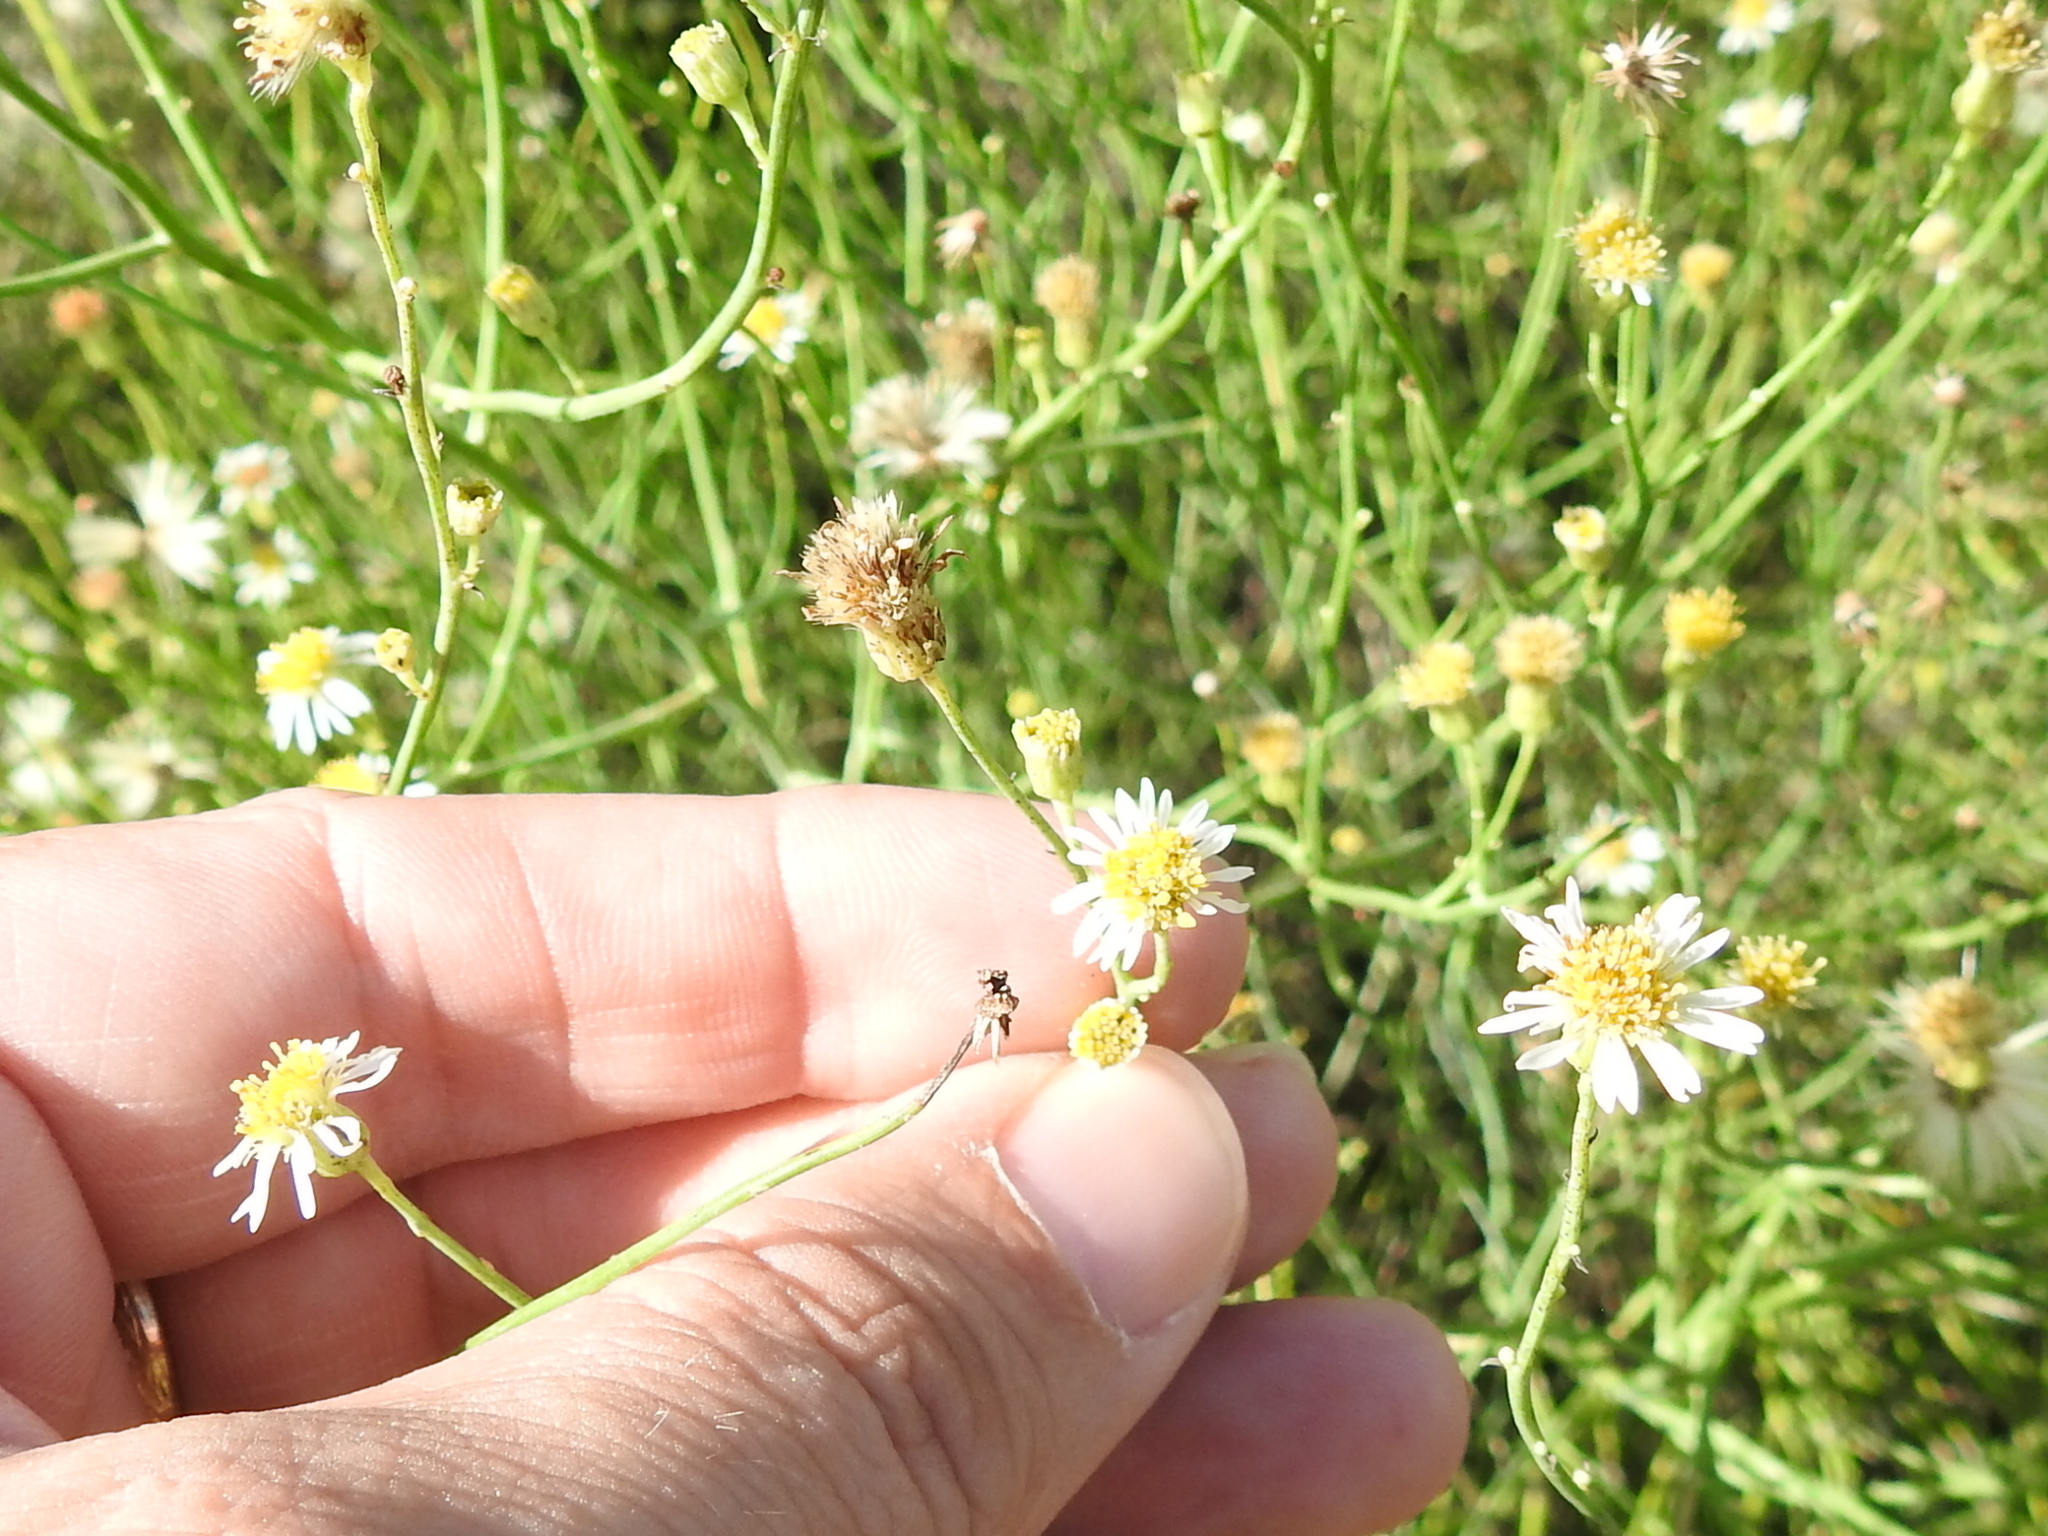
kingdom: Plantae
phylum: Tracheophyta
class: Magnoliopsida
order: Asterales
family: Asteraceae
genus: Chloracantha
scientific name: Chloracantha spinosa
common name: Mexican devilweed
